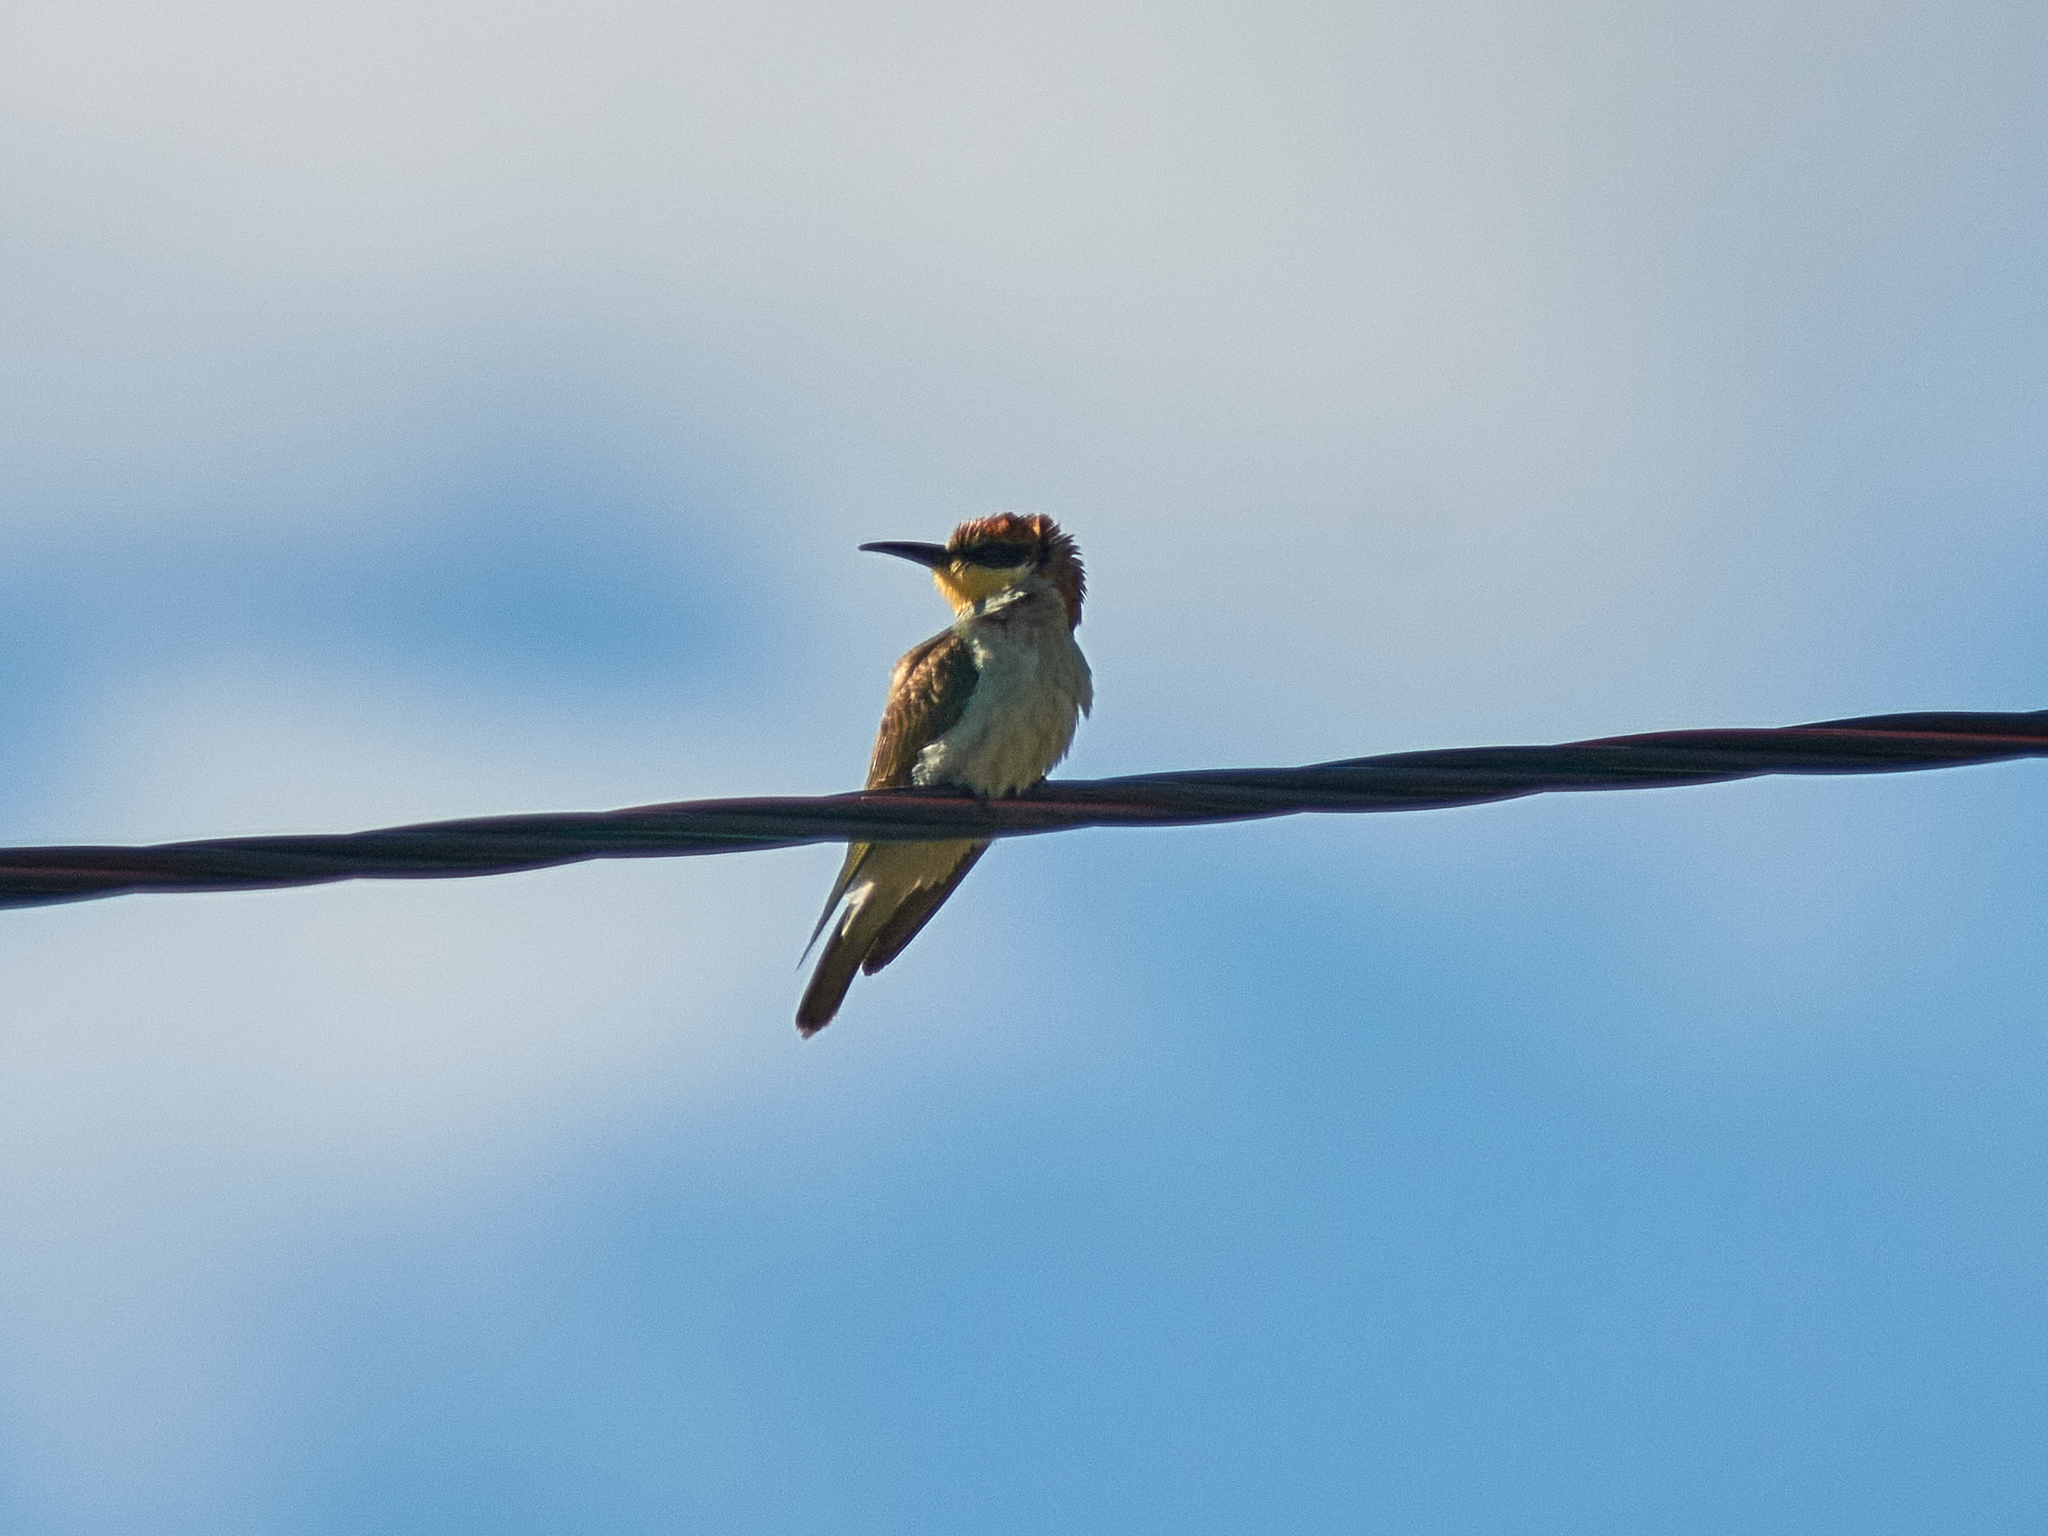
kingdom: Animalia
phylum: Chordata
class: Aves
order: Coraciiformes
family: Meropidae
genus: Merops
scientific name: Merops apiaster
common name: European bee-eater
